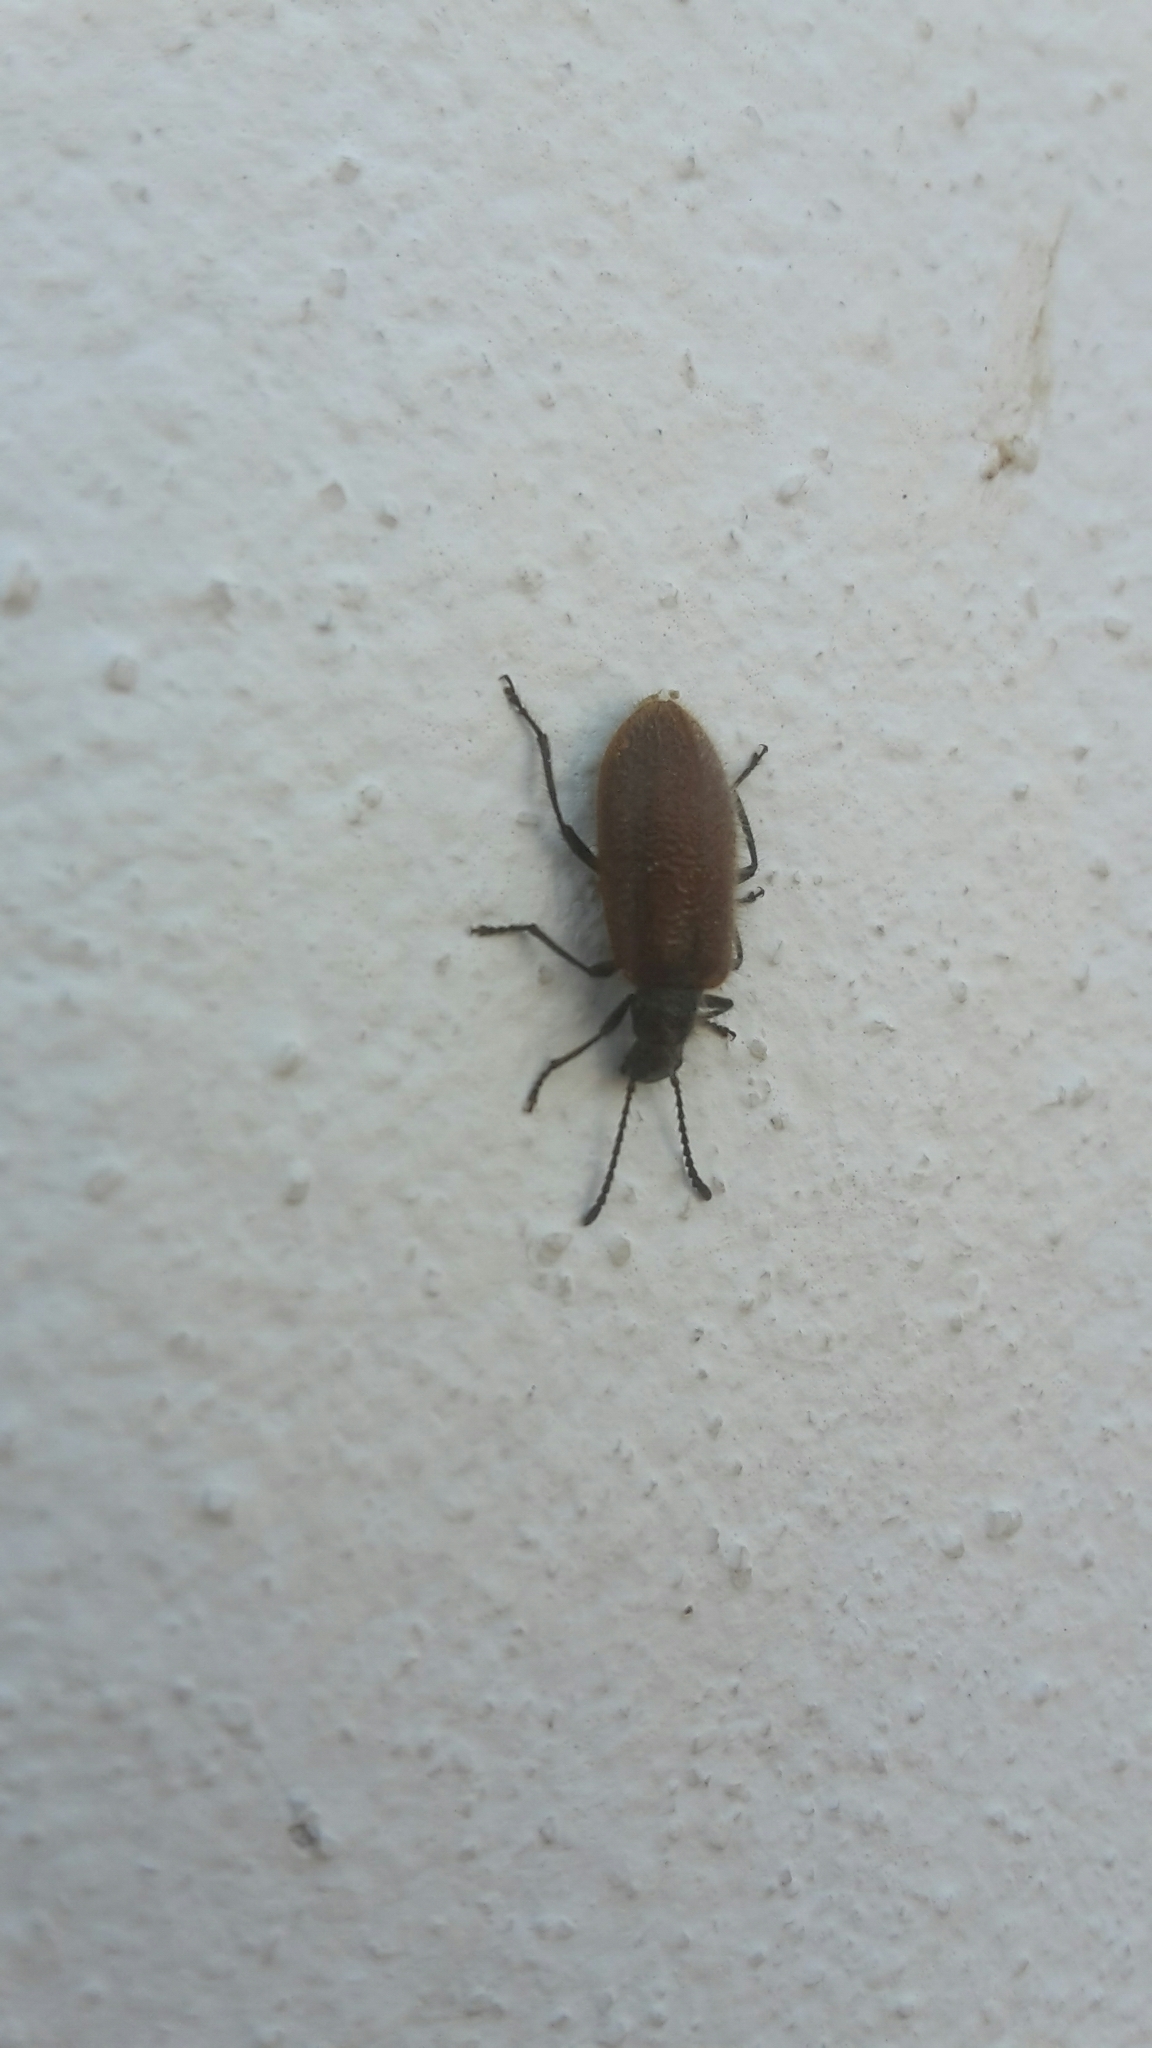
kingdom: Animalia
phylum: Arthropoda
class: Insecta
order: Coleoptera
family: Tenebrionidae
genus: Lagria
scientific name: Lagria grenieri
